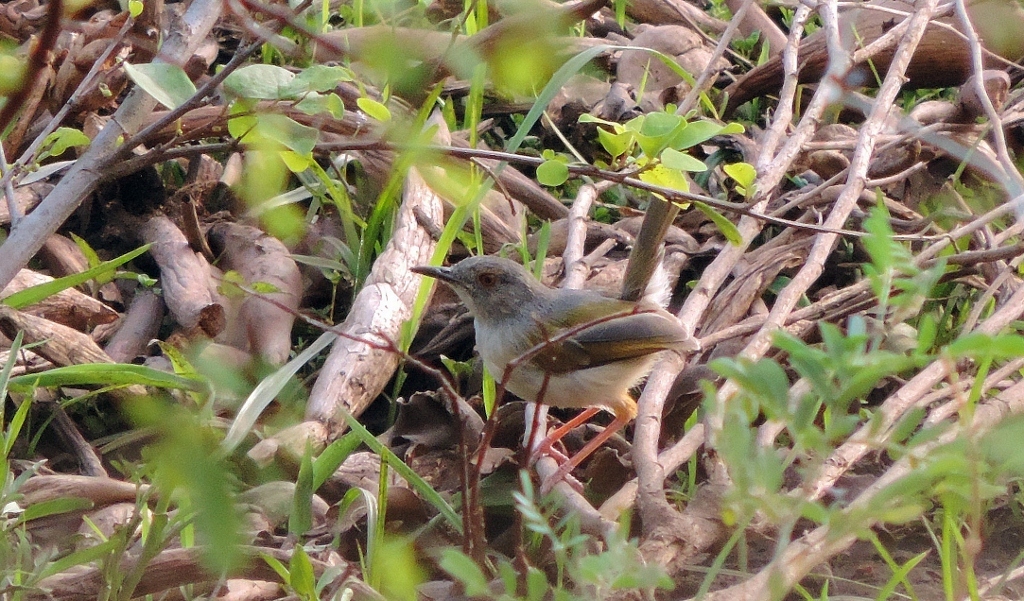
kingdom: Animalia
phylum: Chordata
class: Aves
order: Passeriformes
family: Cisticolidae
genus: Camaroptera
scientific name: Camaroptera brachyura
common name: Green-backed camaroptera
